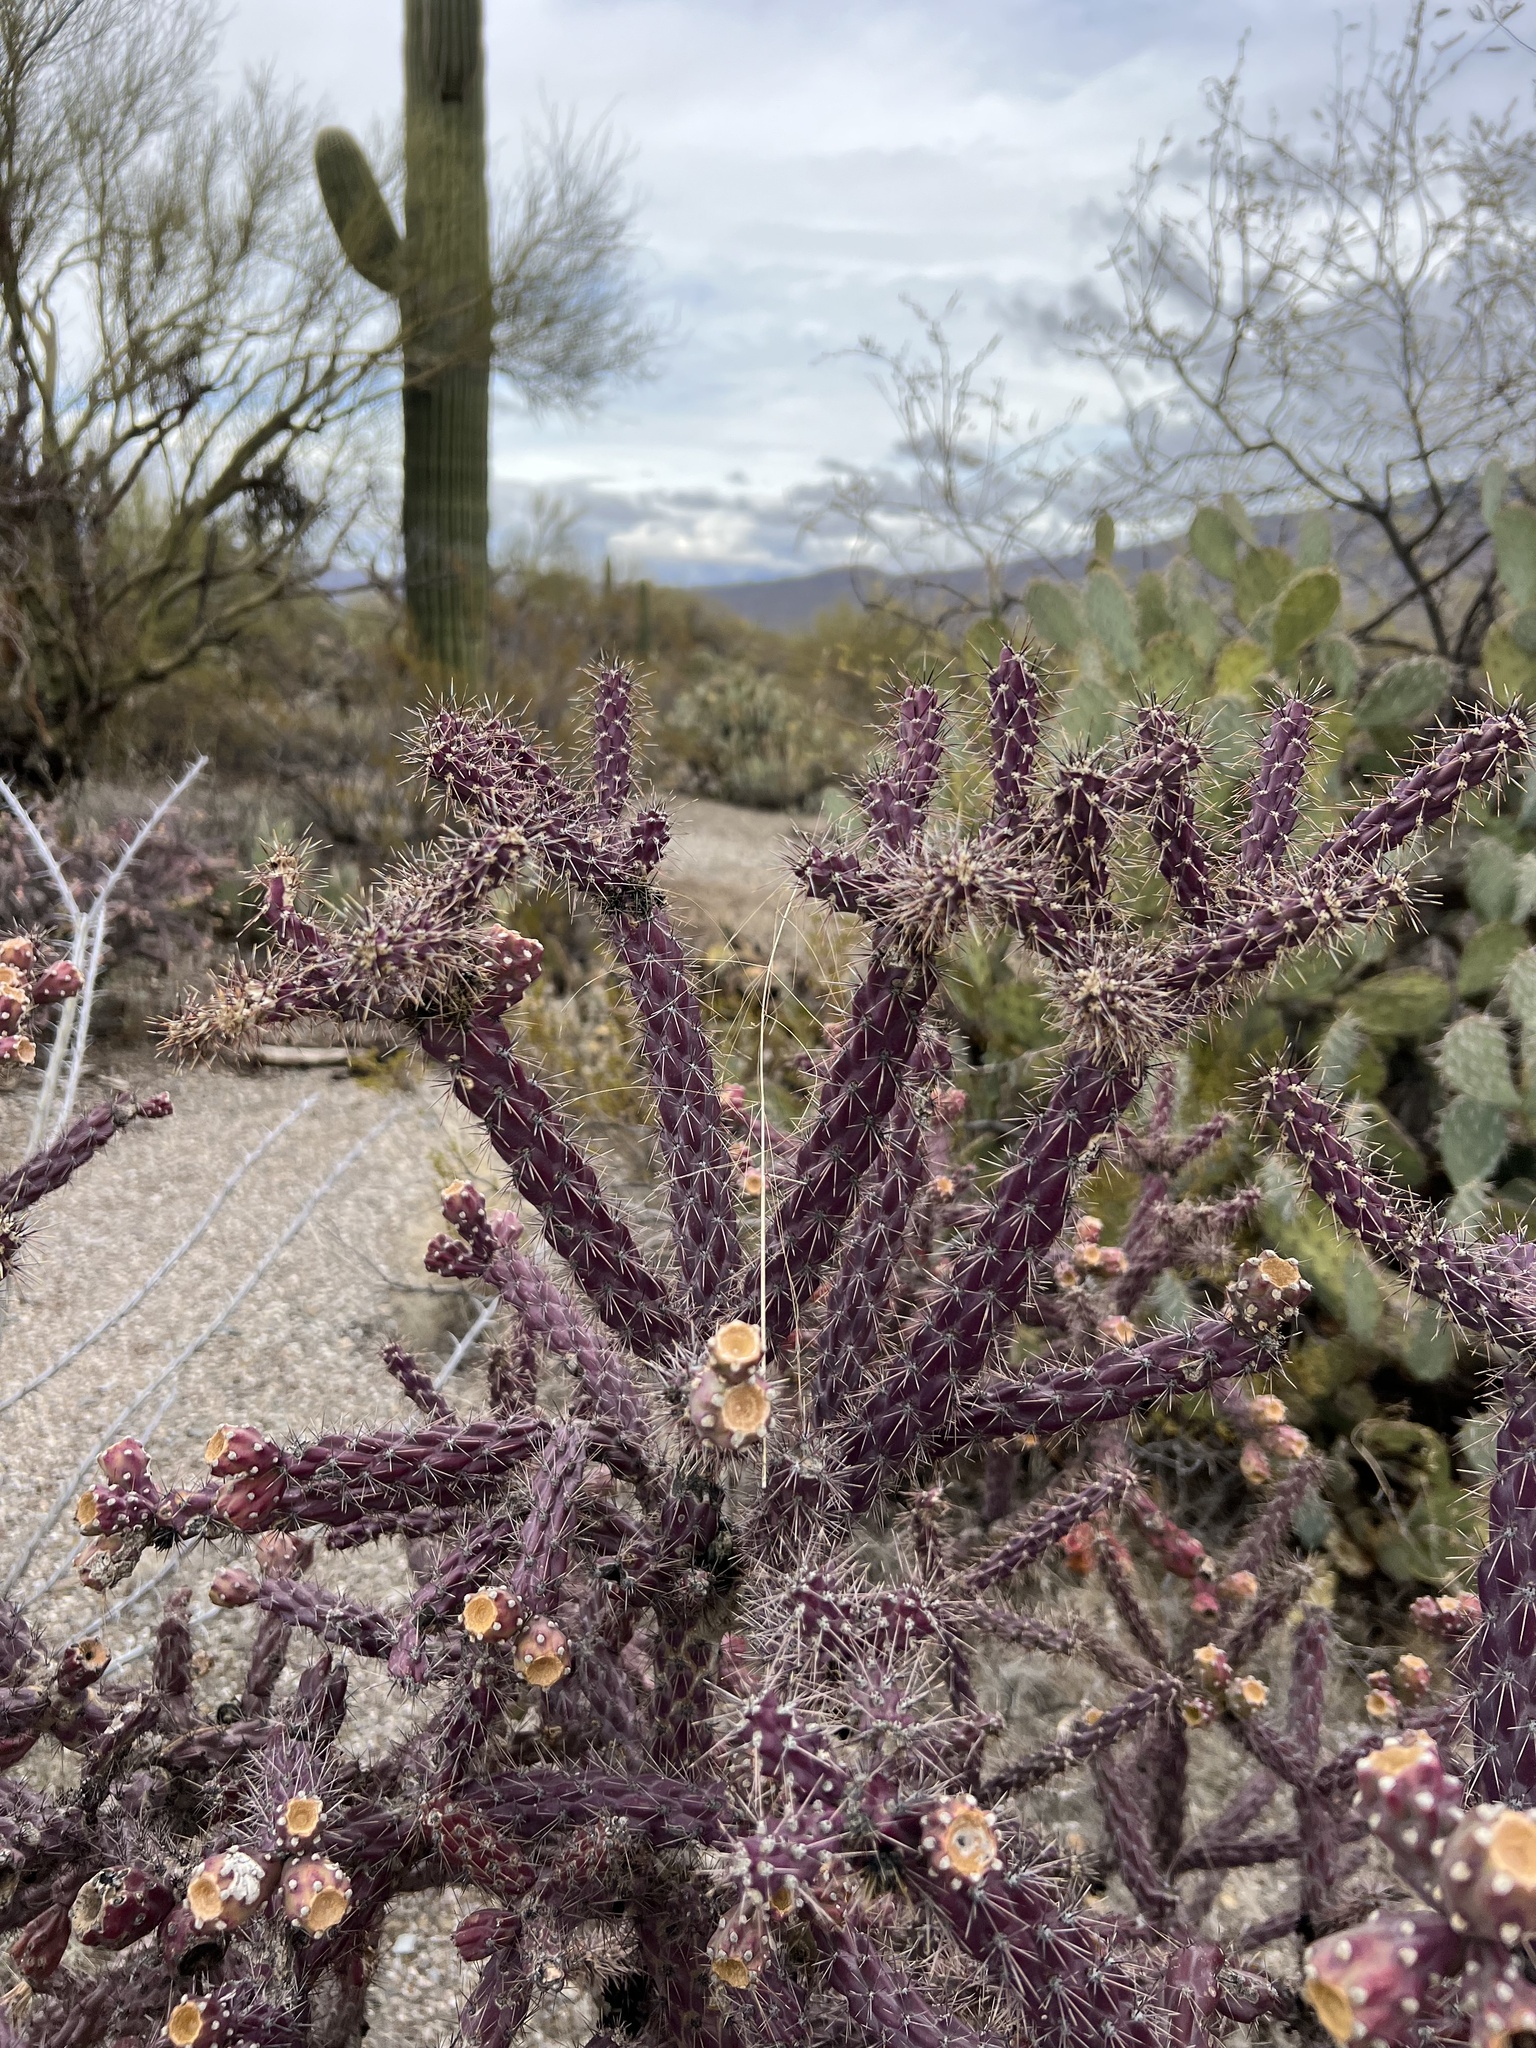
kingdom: Plantae
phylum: Tracheophyta
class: Magnoliopsida
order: Caryophyllales
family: Cactaceae
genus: Cylindropuntia
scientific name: Cylindropuntia thurberi
